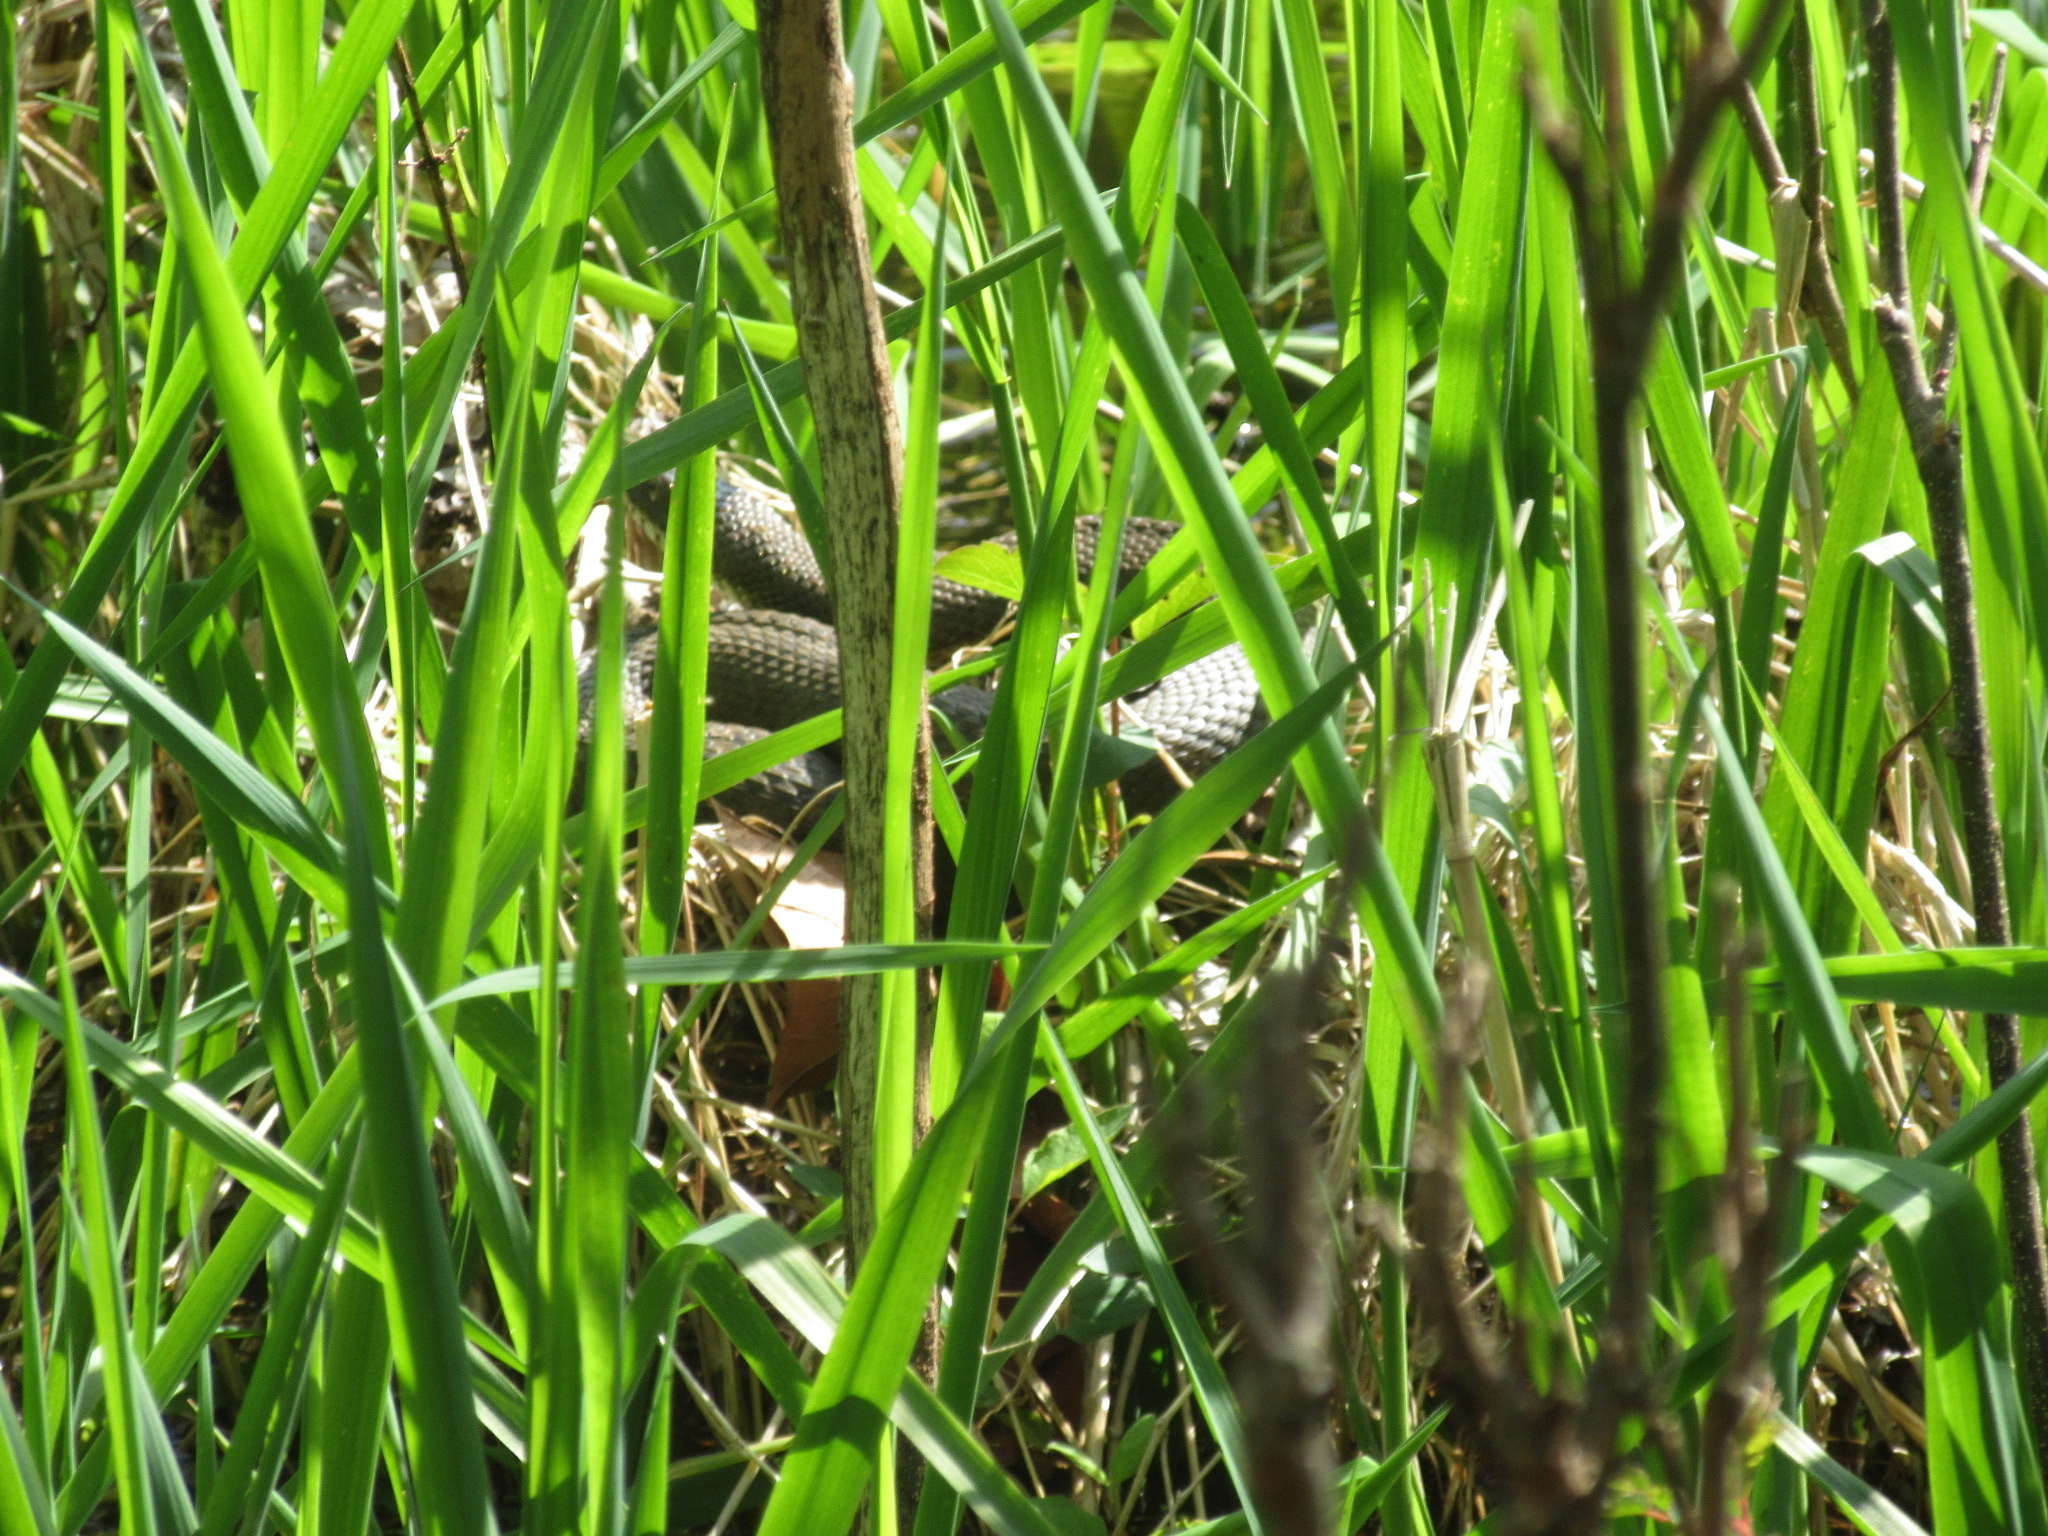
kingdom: Animalia
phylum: Chordata
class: Squamata
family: Colubridae
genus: Nerodia
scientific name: Nerodia sipedon
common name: Northern water snake
